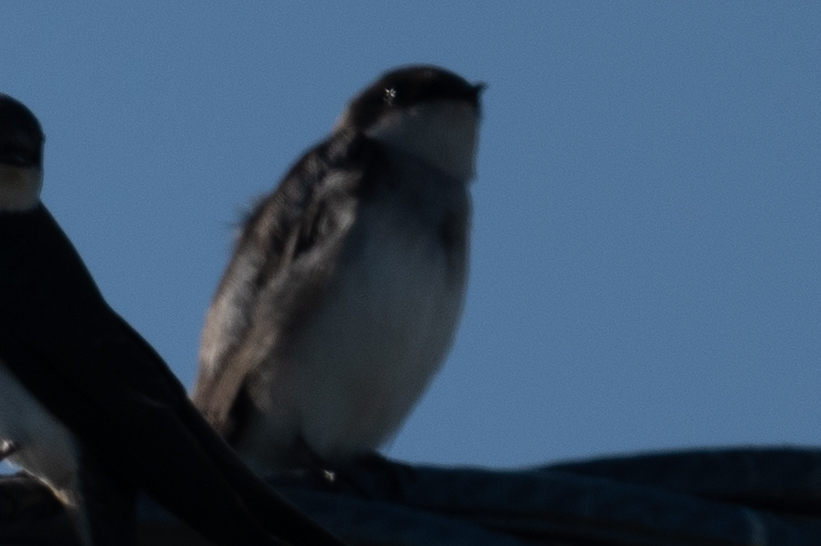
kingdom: Animalia
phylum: Chordata
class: Aves
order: Passeriformes
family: Hirundinidae
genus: Tachycineta
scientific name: Tachycineta bicolor
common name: Tree swallow
